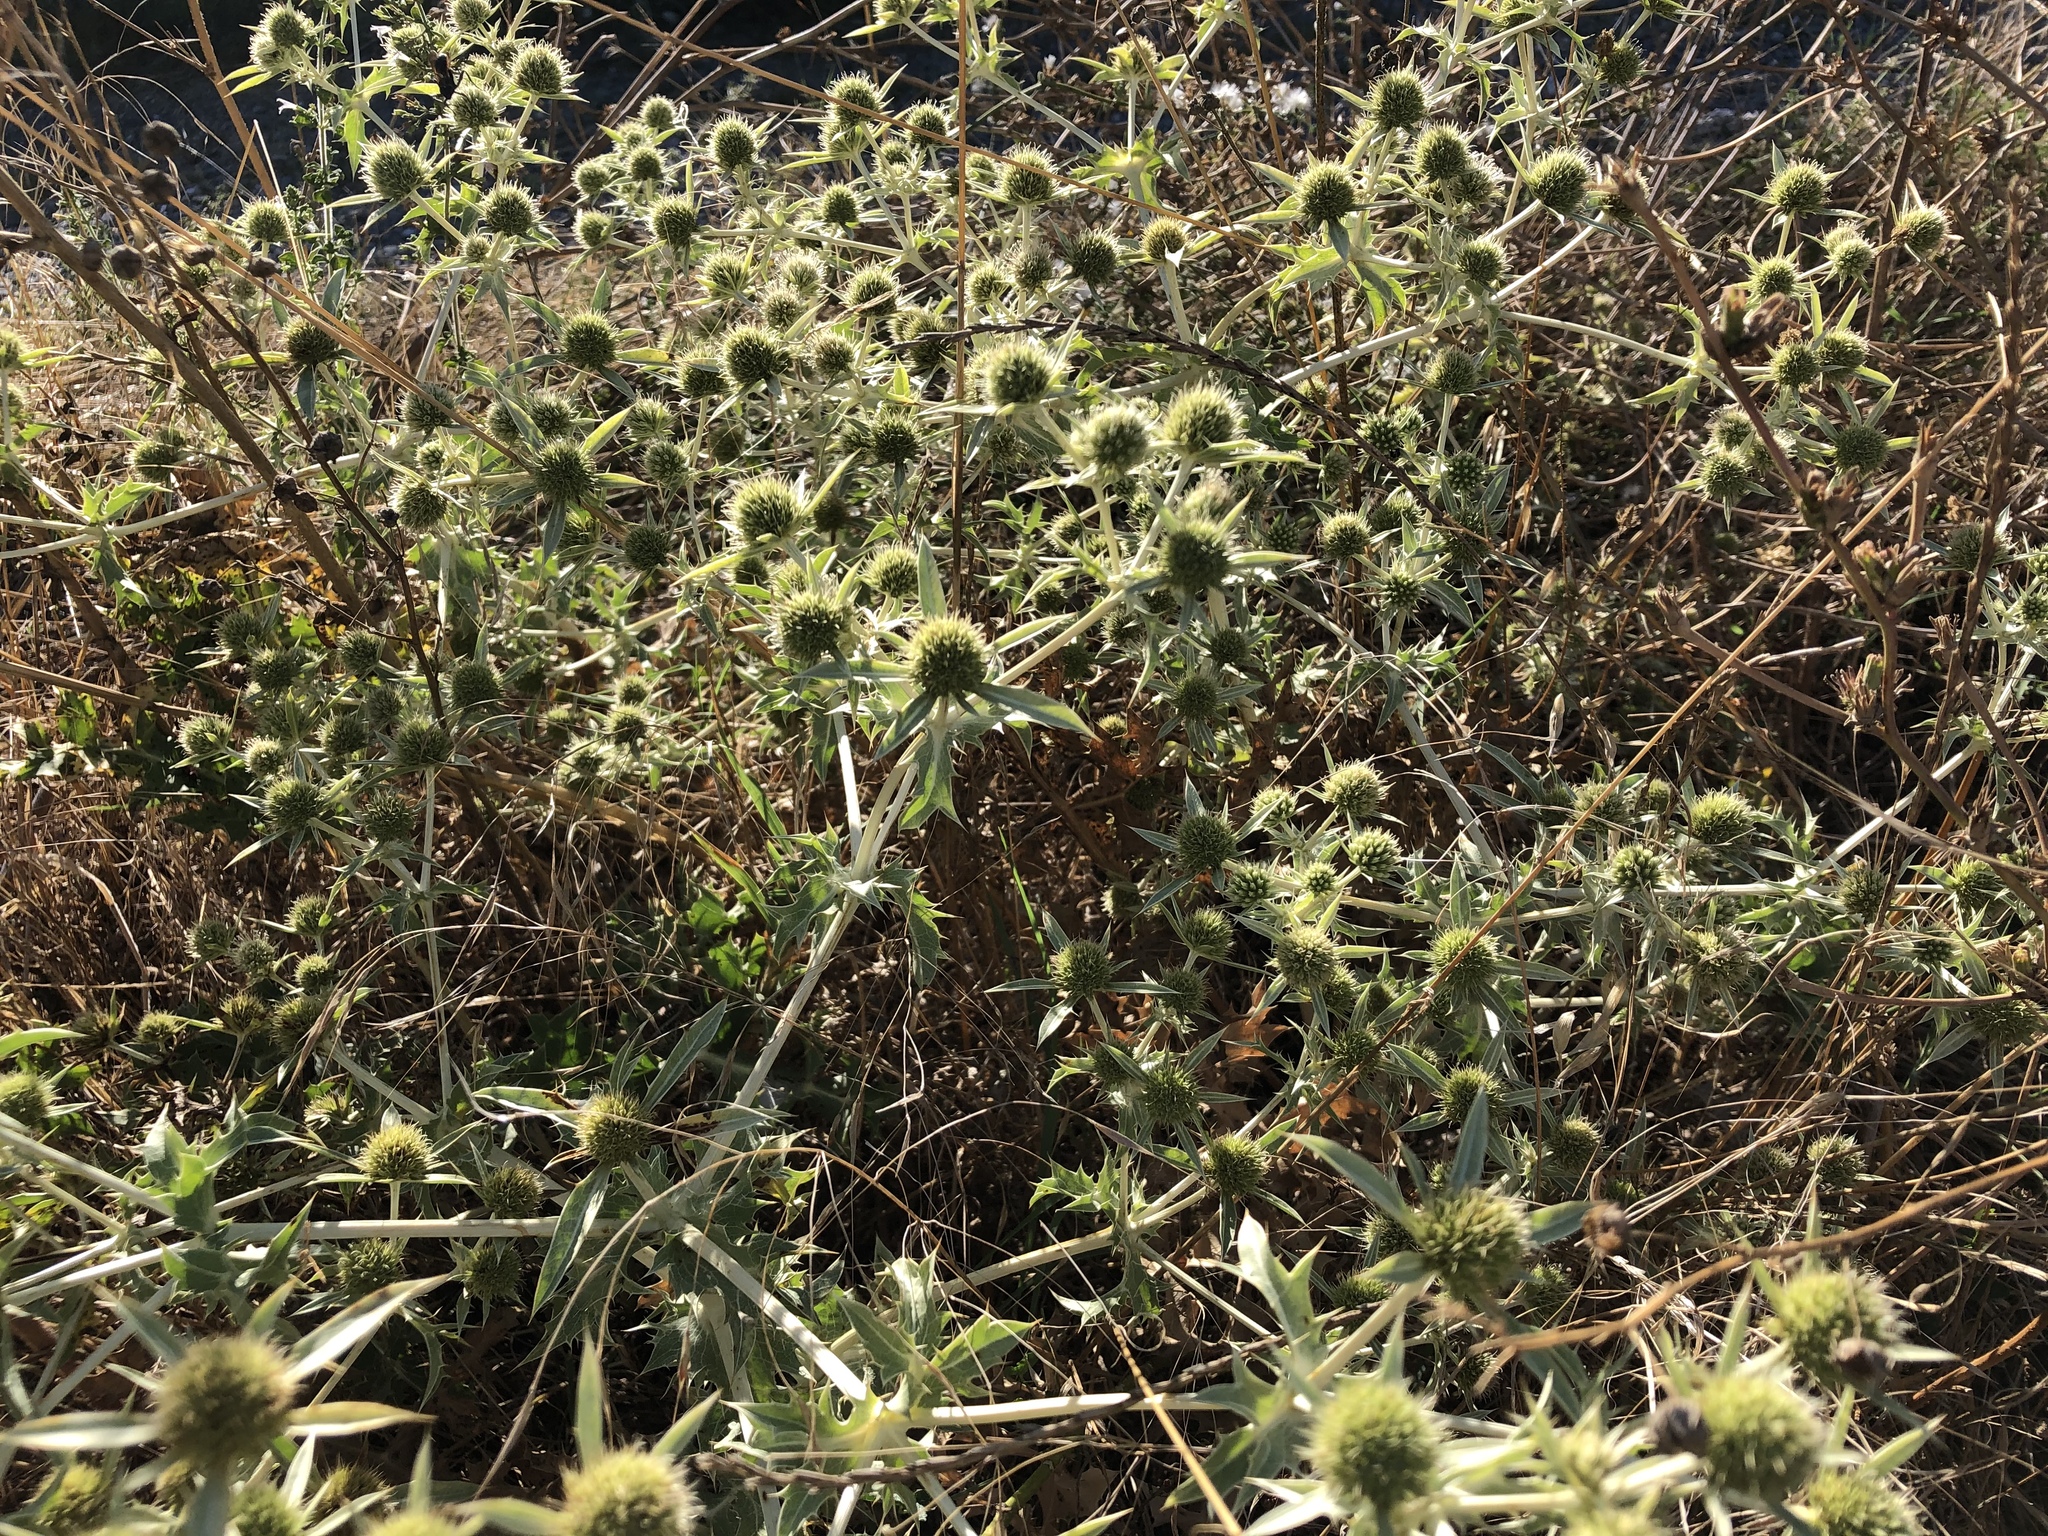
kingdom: Plantae
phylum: Tracheophyta
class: Magnoliopsida
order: Apiales
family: Apiaceae
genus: Eryngium
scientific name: Eryngium campestre
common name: Field eryngo
